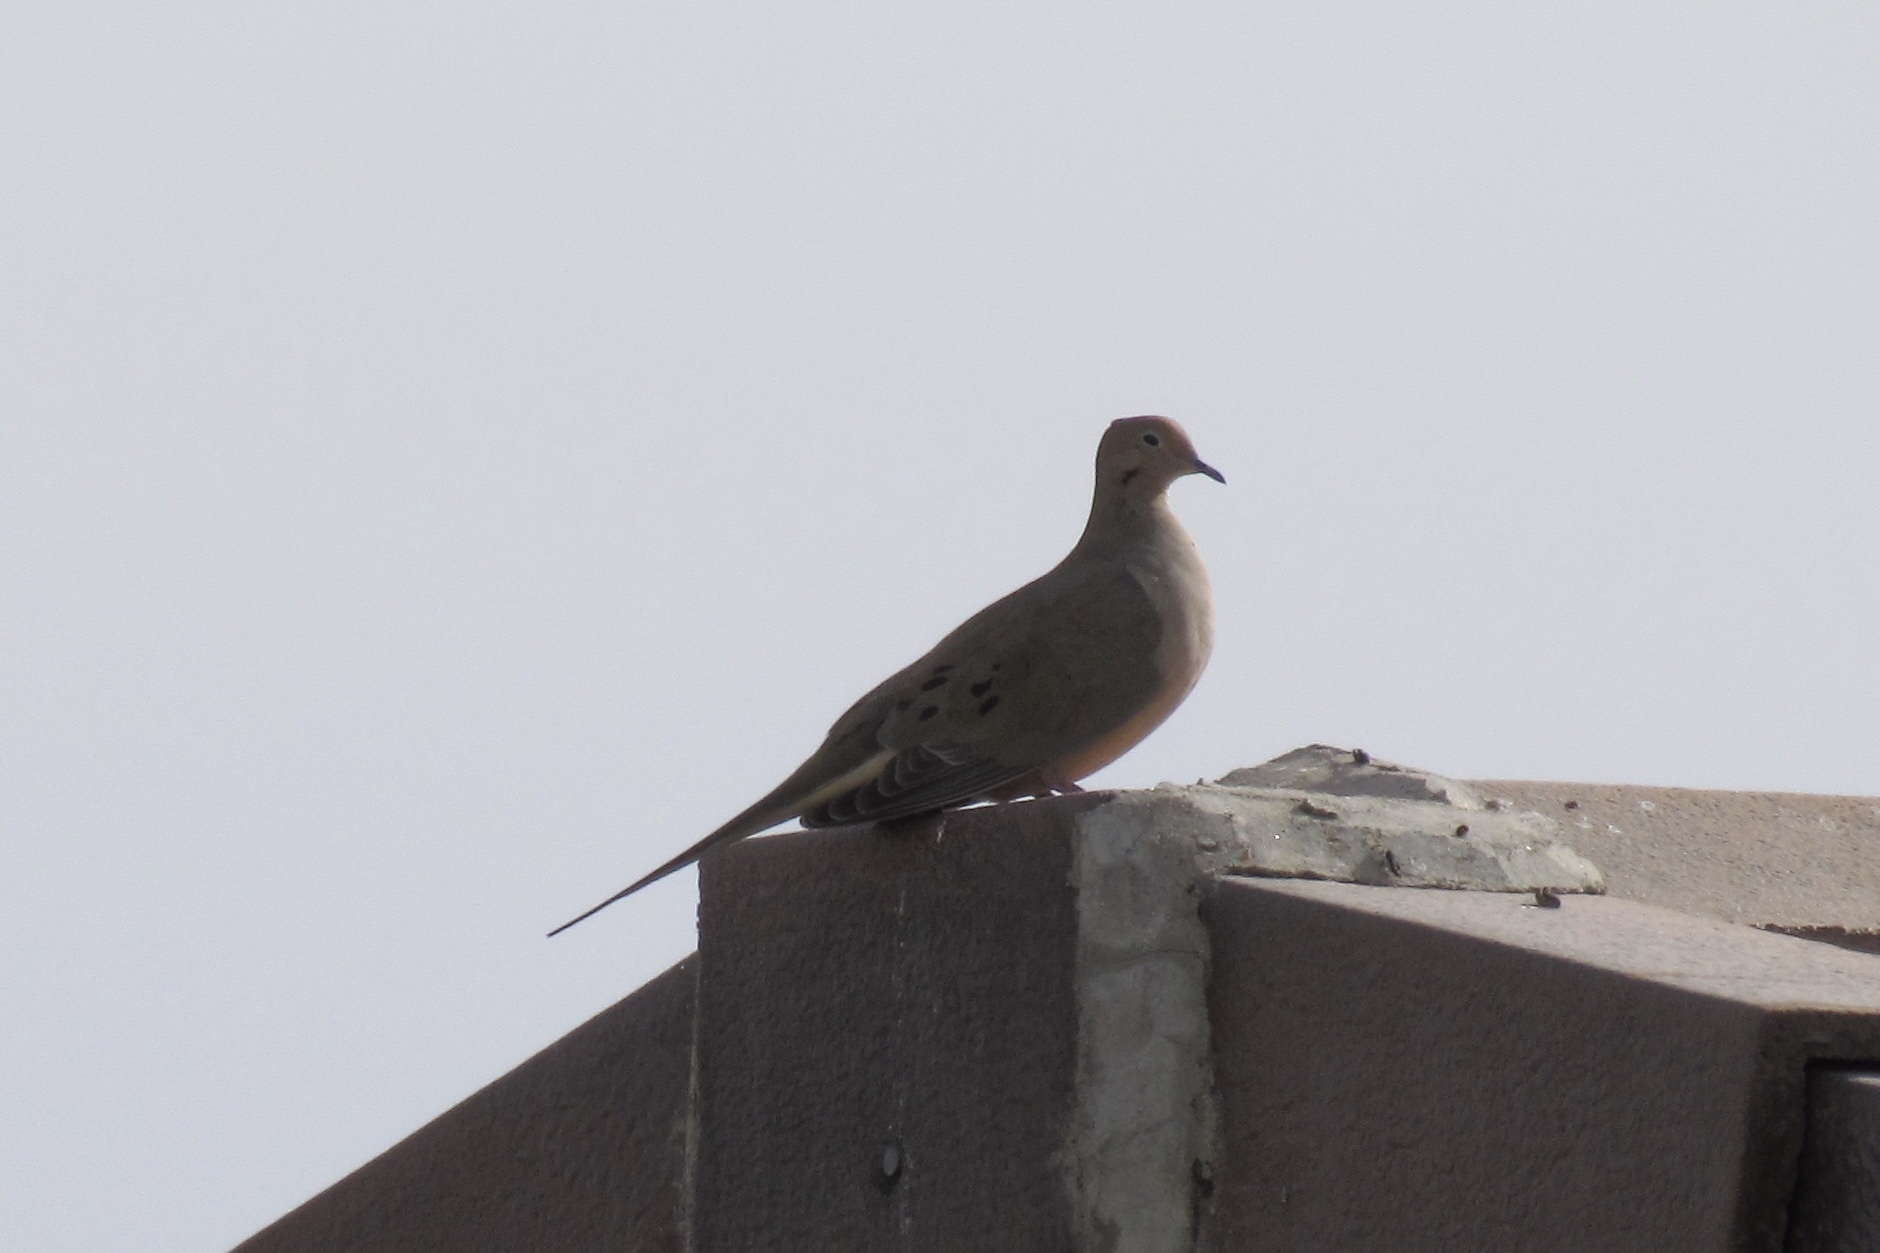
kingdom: Animalia
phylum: Chordata
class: Aves
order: Columbiformes
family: Columbidae
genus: Zenaida
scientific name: Zenaida macroura
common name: Mourning dove
